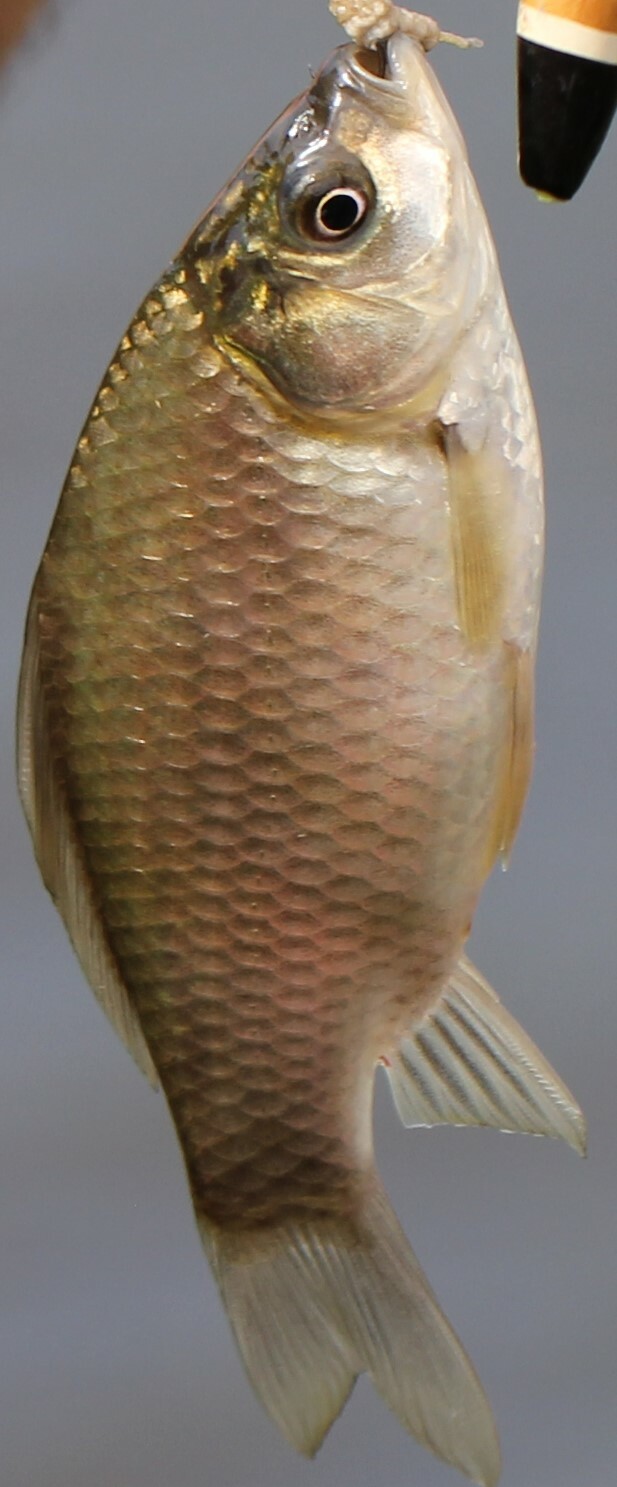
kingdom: Animalia
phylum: Chordata
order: Cypriniformes
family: Cyprinidae
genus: Carassius
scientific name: Carassius gibelio
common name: Prussian carp
